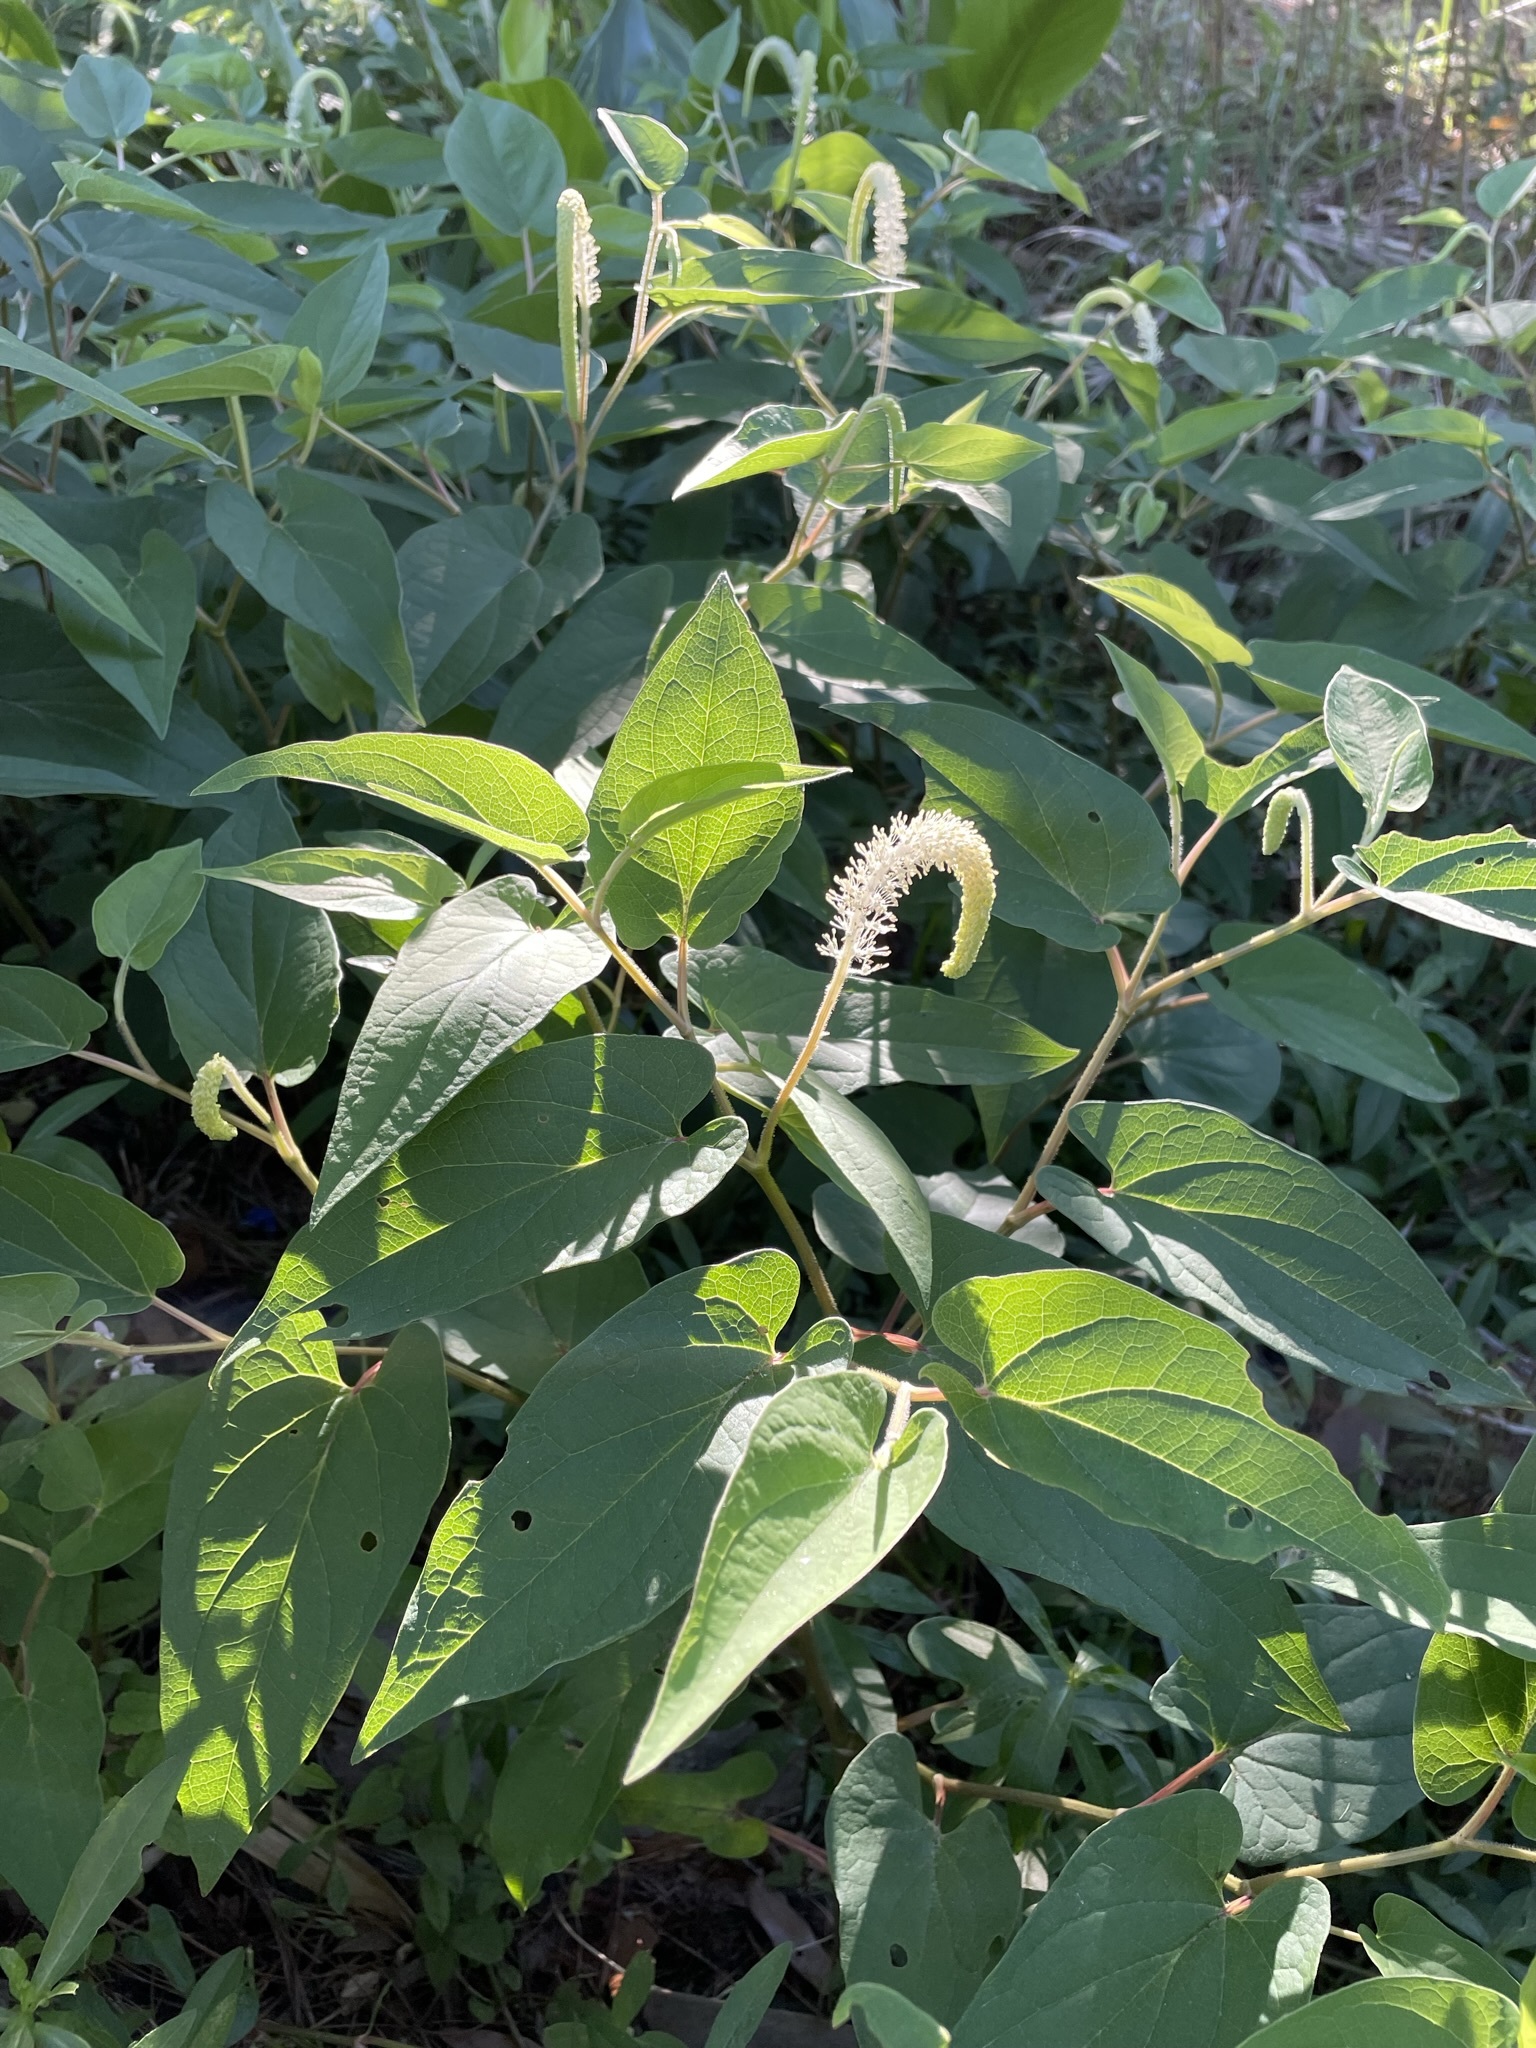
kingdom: Plantae
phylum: Tracheophyta
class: Magnoliopsida
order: Piperales
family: Saururaceae
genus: Saururus
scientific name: Saururus cernuus
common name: Lizard's-tail
